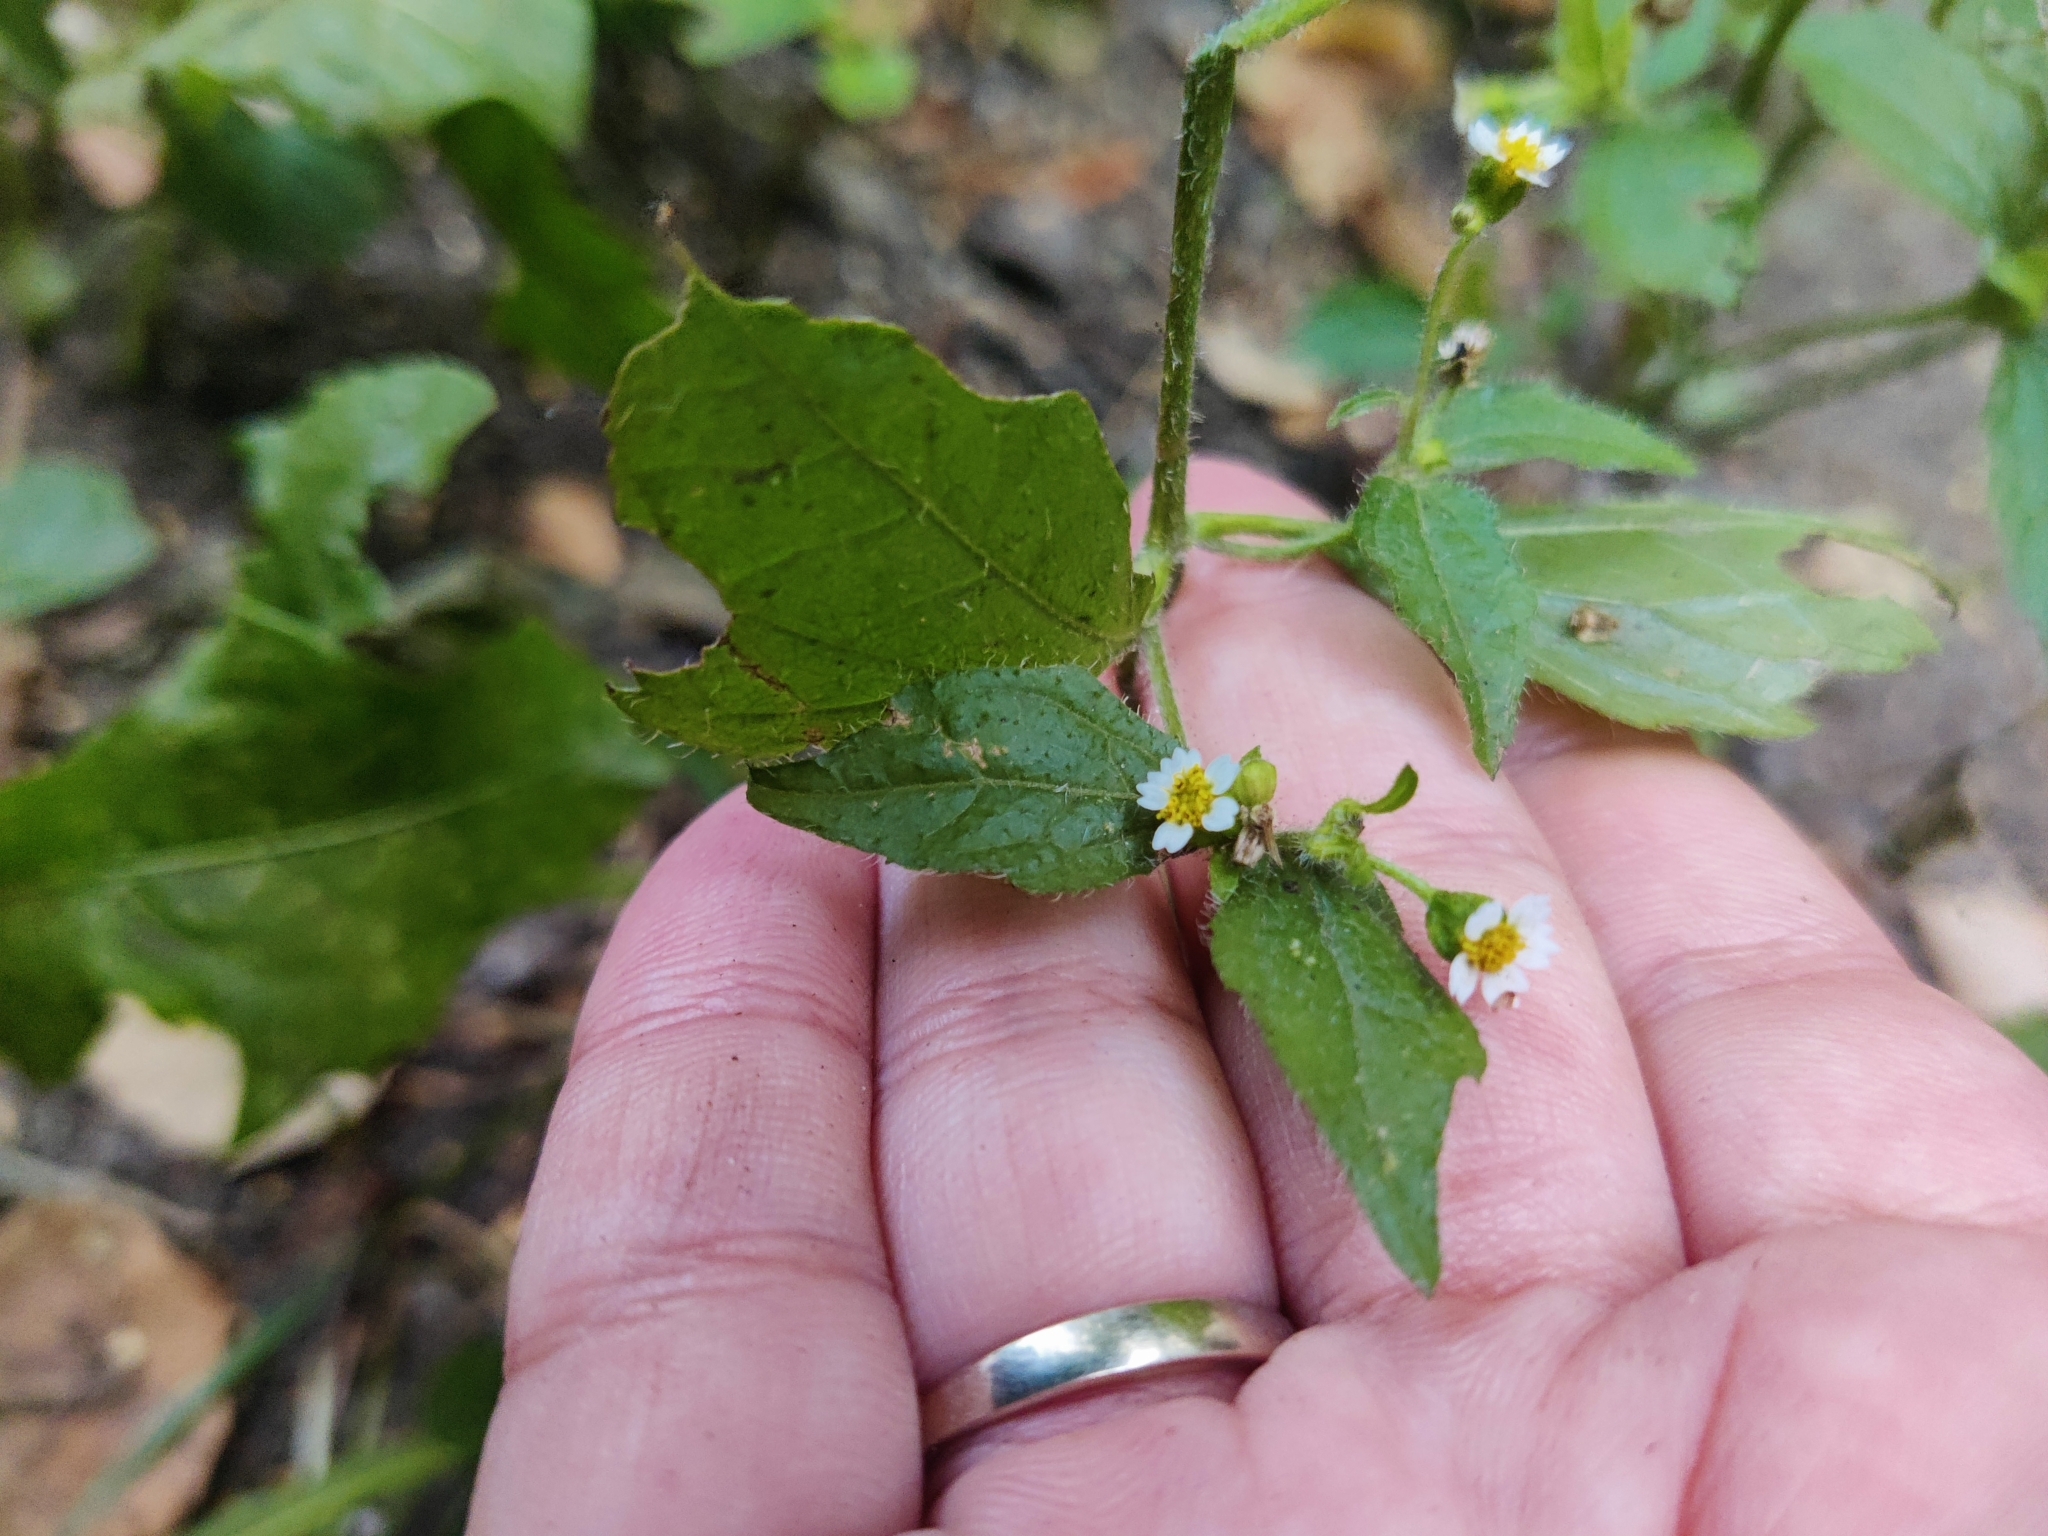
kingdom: Plantae
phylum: Tracheophyta
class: Magnoliopsida
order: Asterales
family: Asteraceae
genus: Galinsoga
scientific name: Galinsoga quadriradiata
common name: Shaggy soldier
